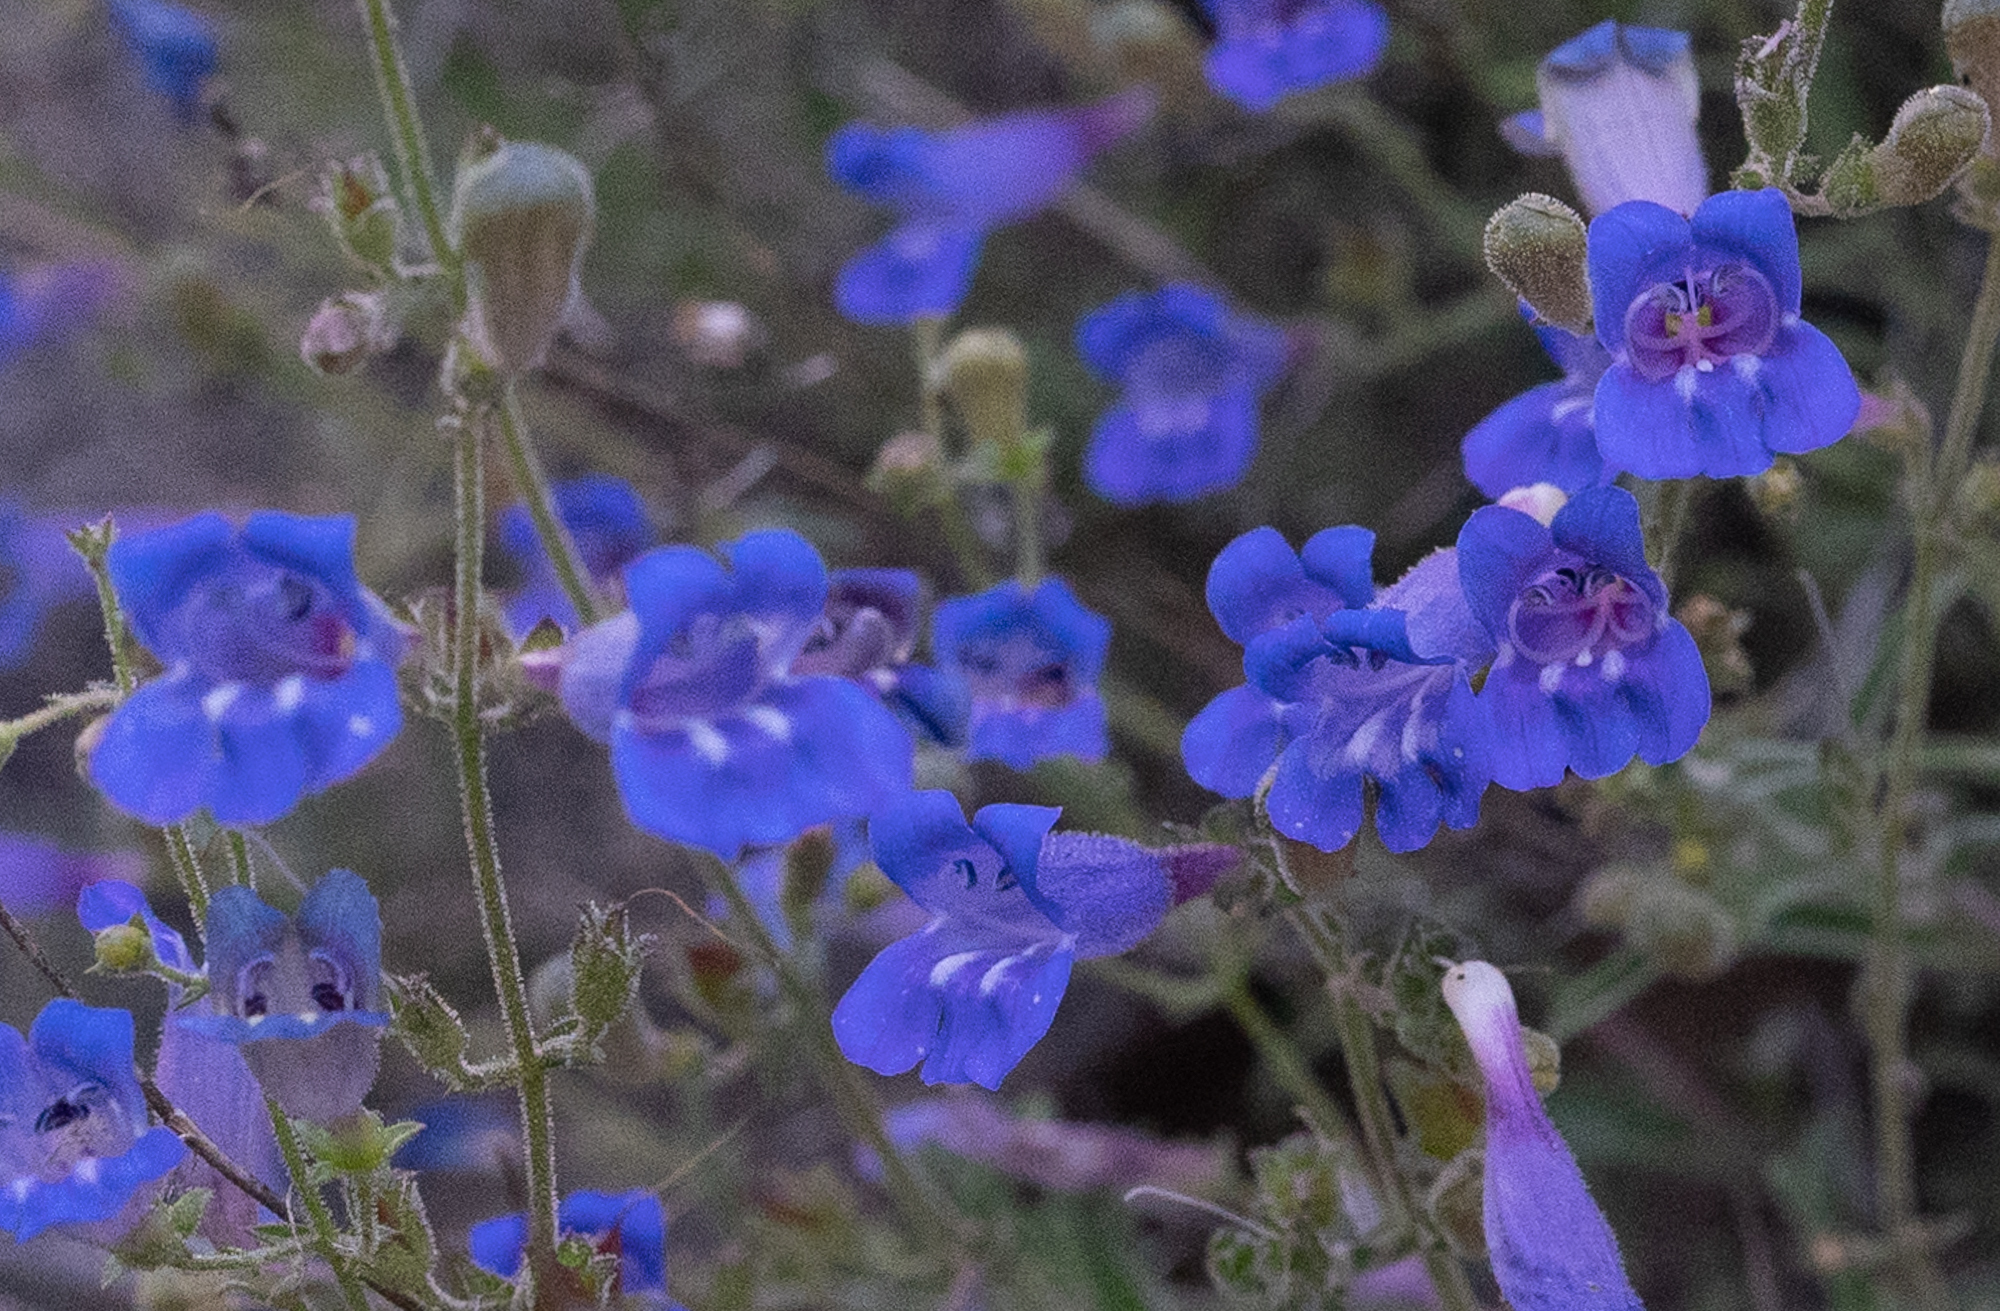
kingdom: Plantae
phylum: Tracheophyta
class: Magnoliopsida
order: Lamiales
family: Plantaginaceae
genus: Penstemon
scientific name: Penstemon laetus
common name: Gay penstemon
